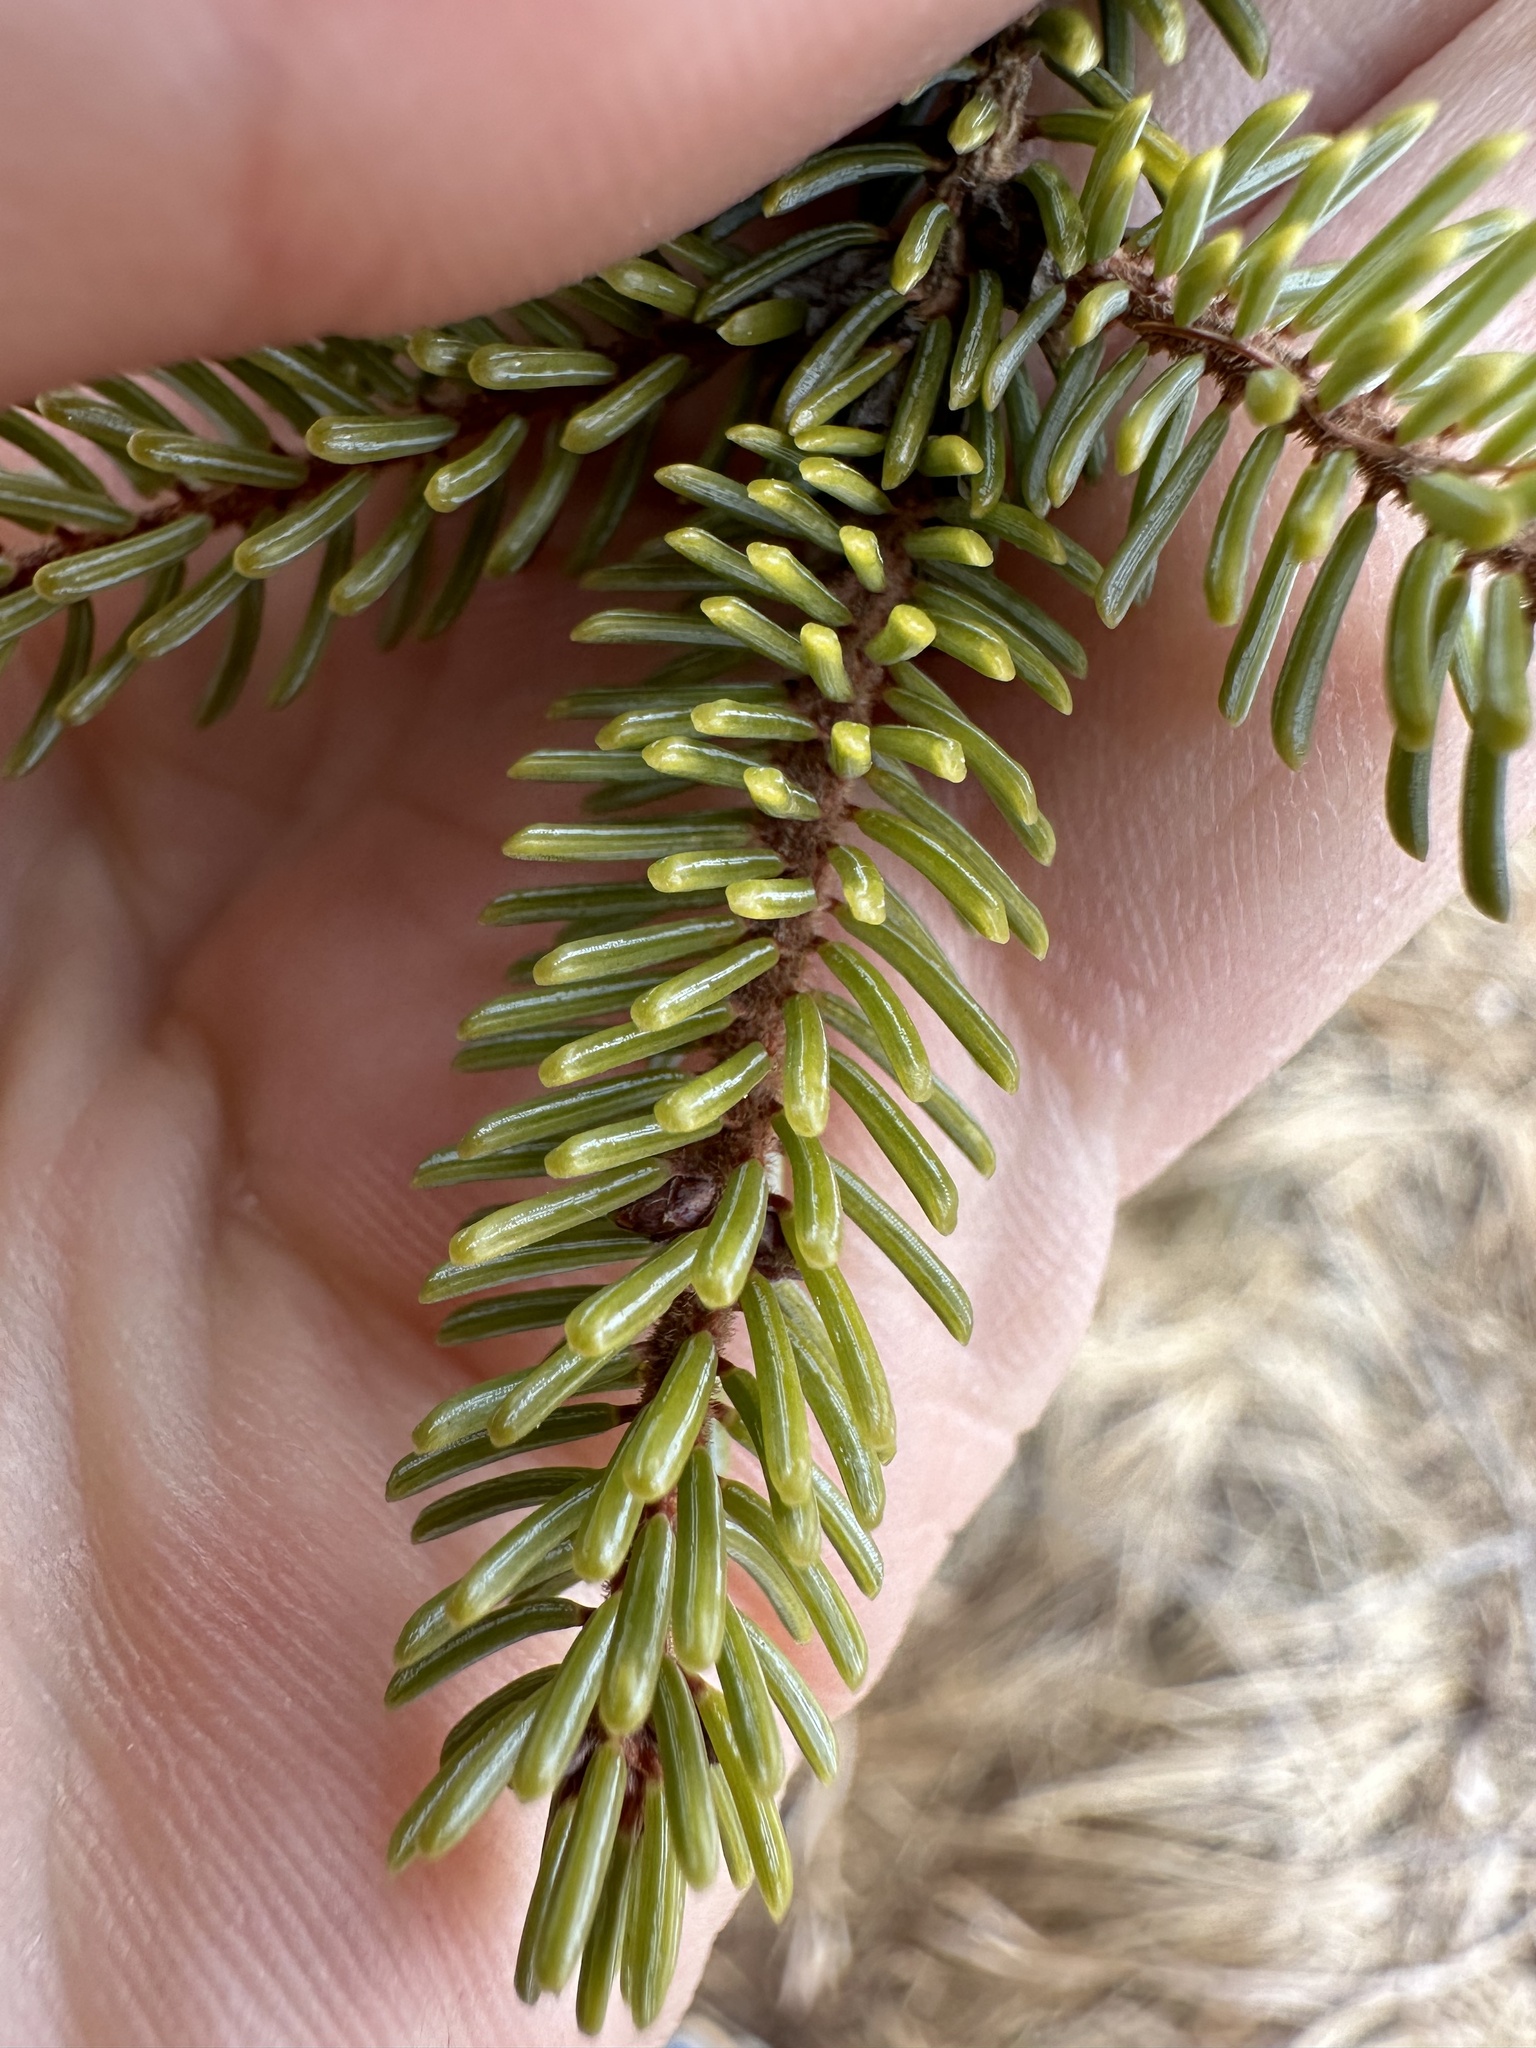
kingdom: Plantae
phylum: Tracheophyta
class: Pinopsida
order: Pinales
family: Pinaceae
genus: Picea
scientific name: Picea mariana
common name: Black spruce
